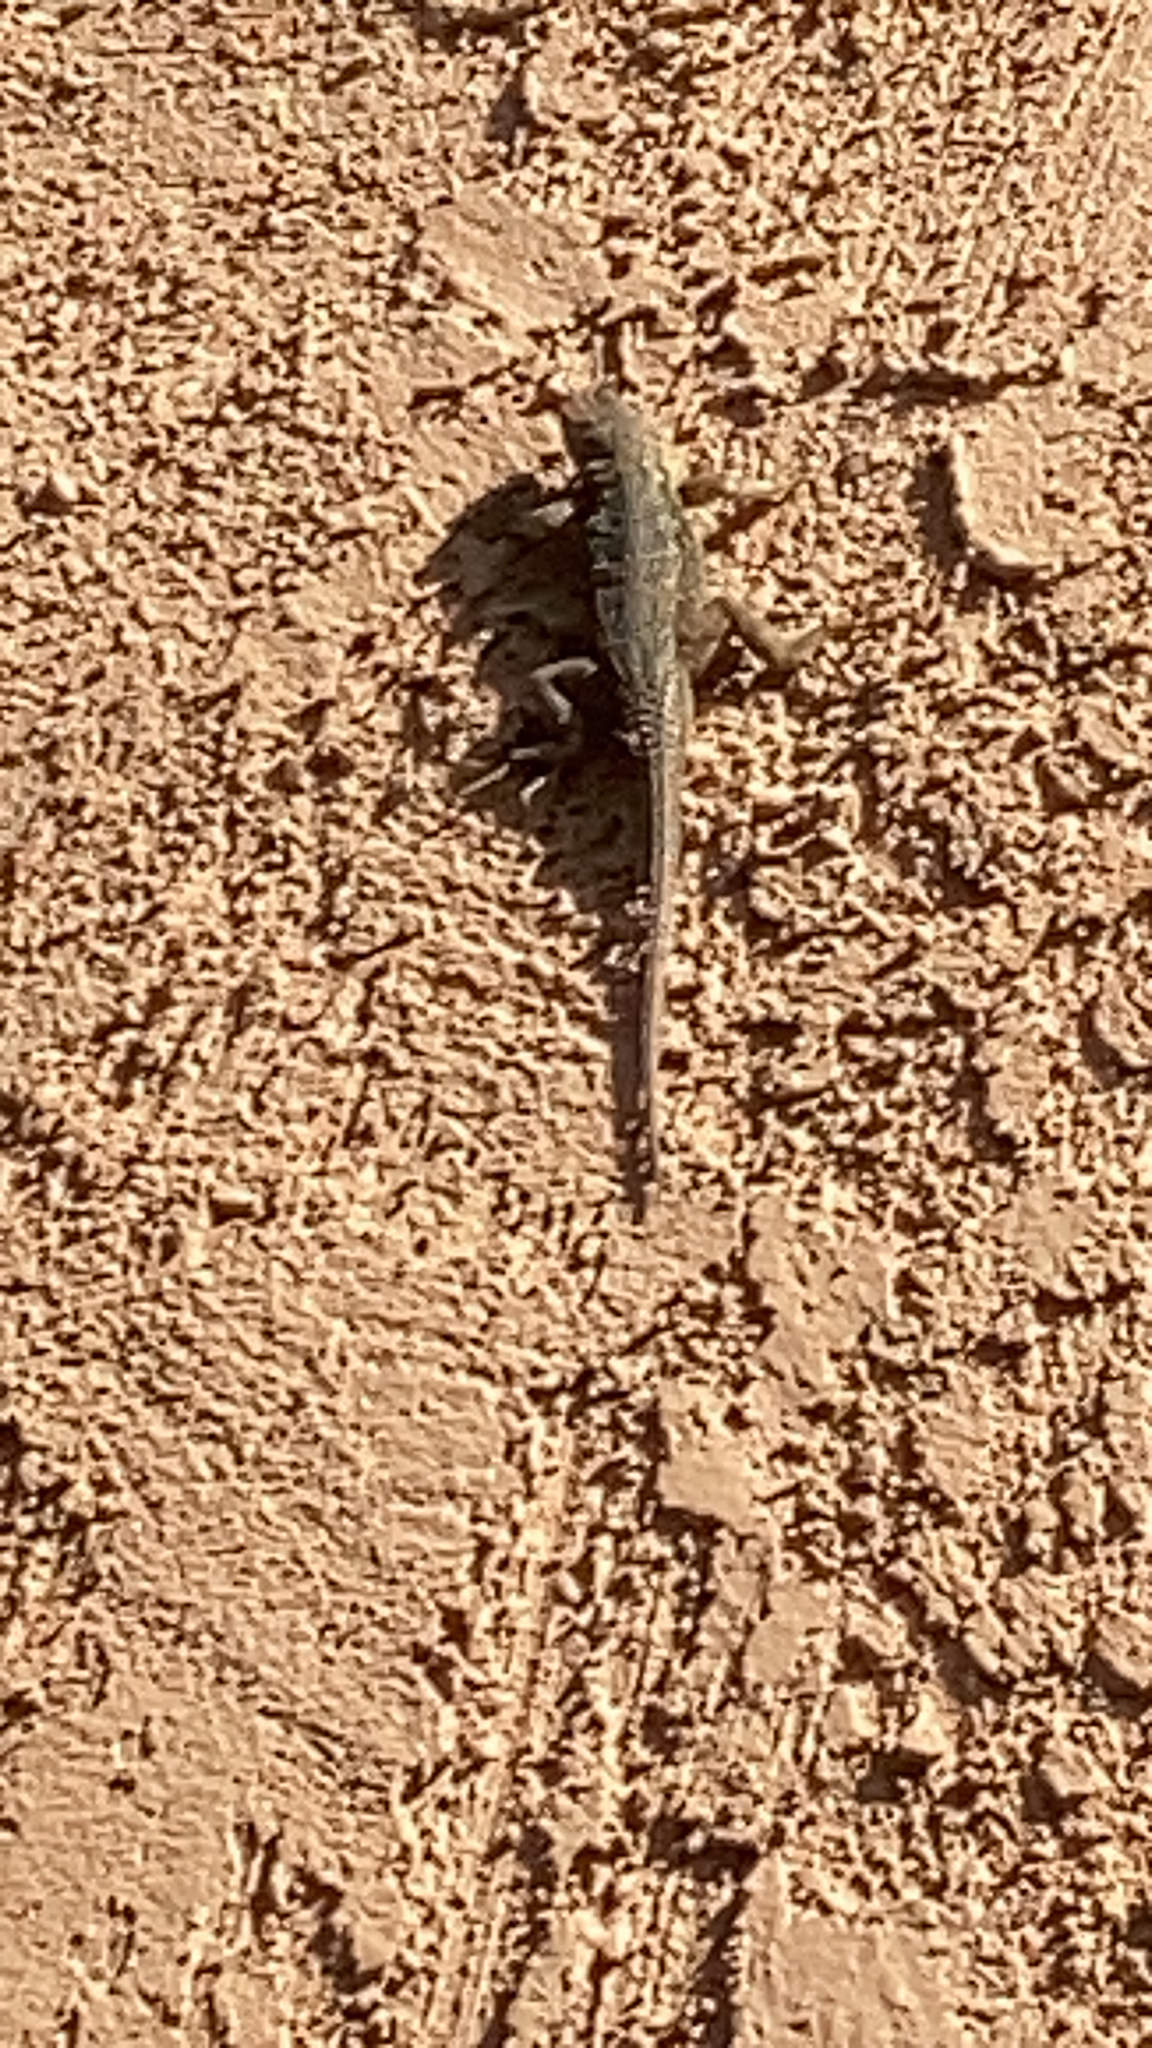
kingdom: Animalia
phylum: Chordata
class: Squamata
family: Phrynosomatidae
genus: Uta
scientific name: Uta stansburiana
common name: Side-blotched lizard
